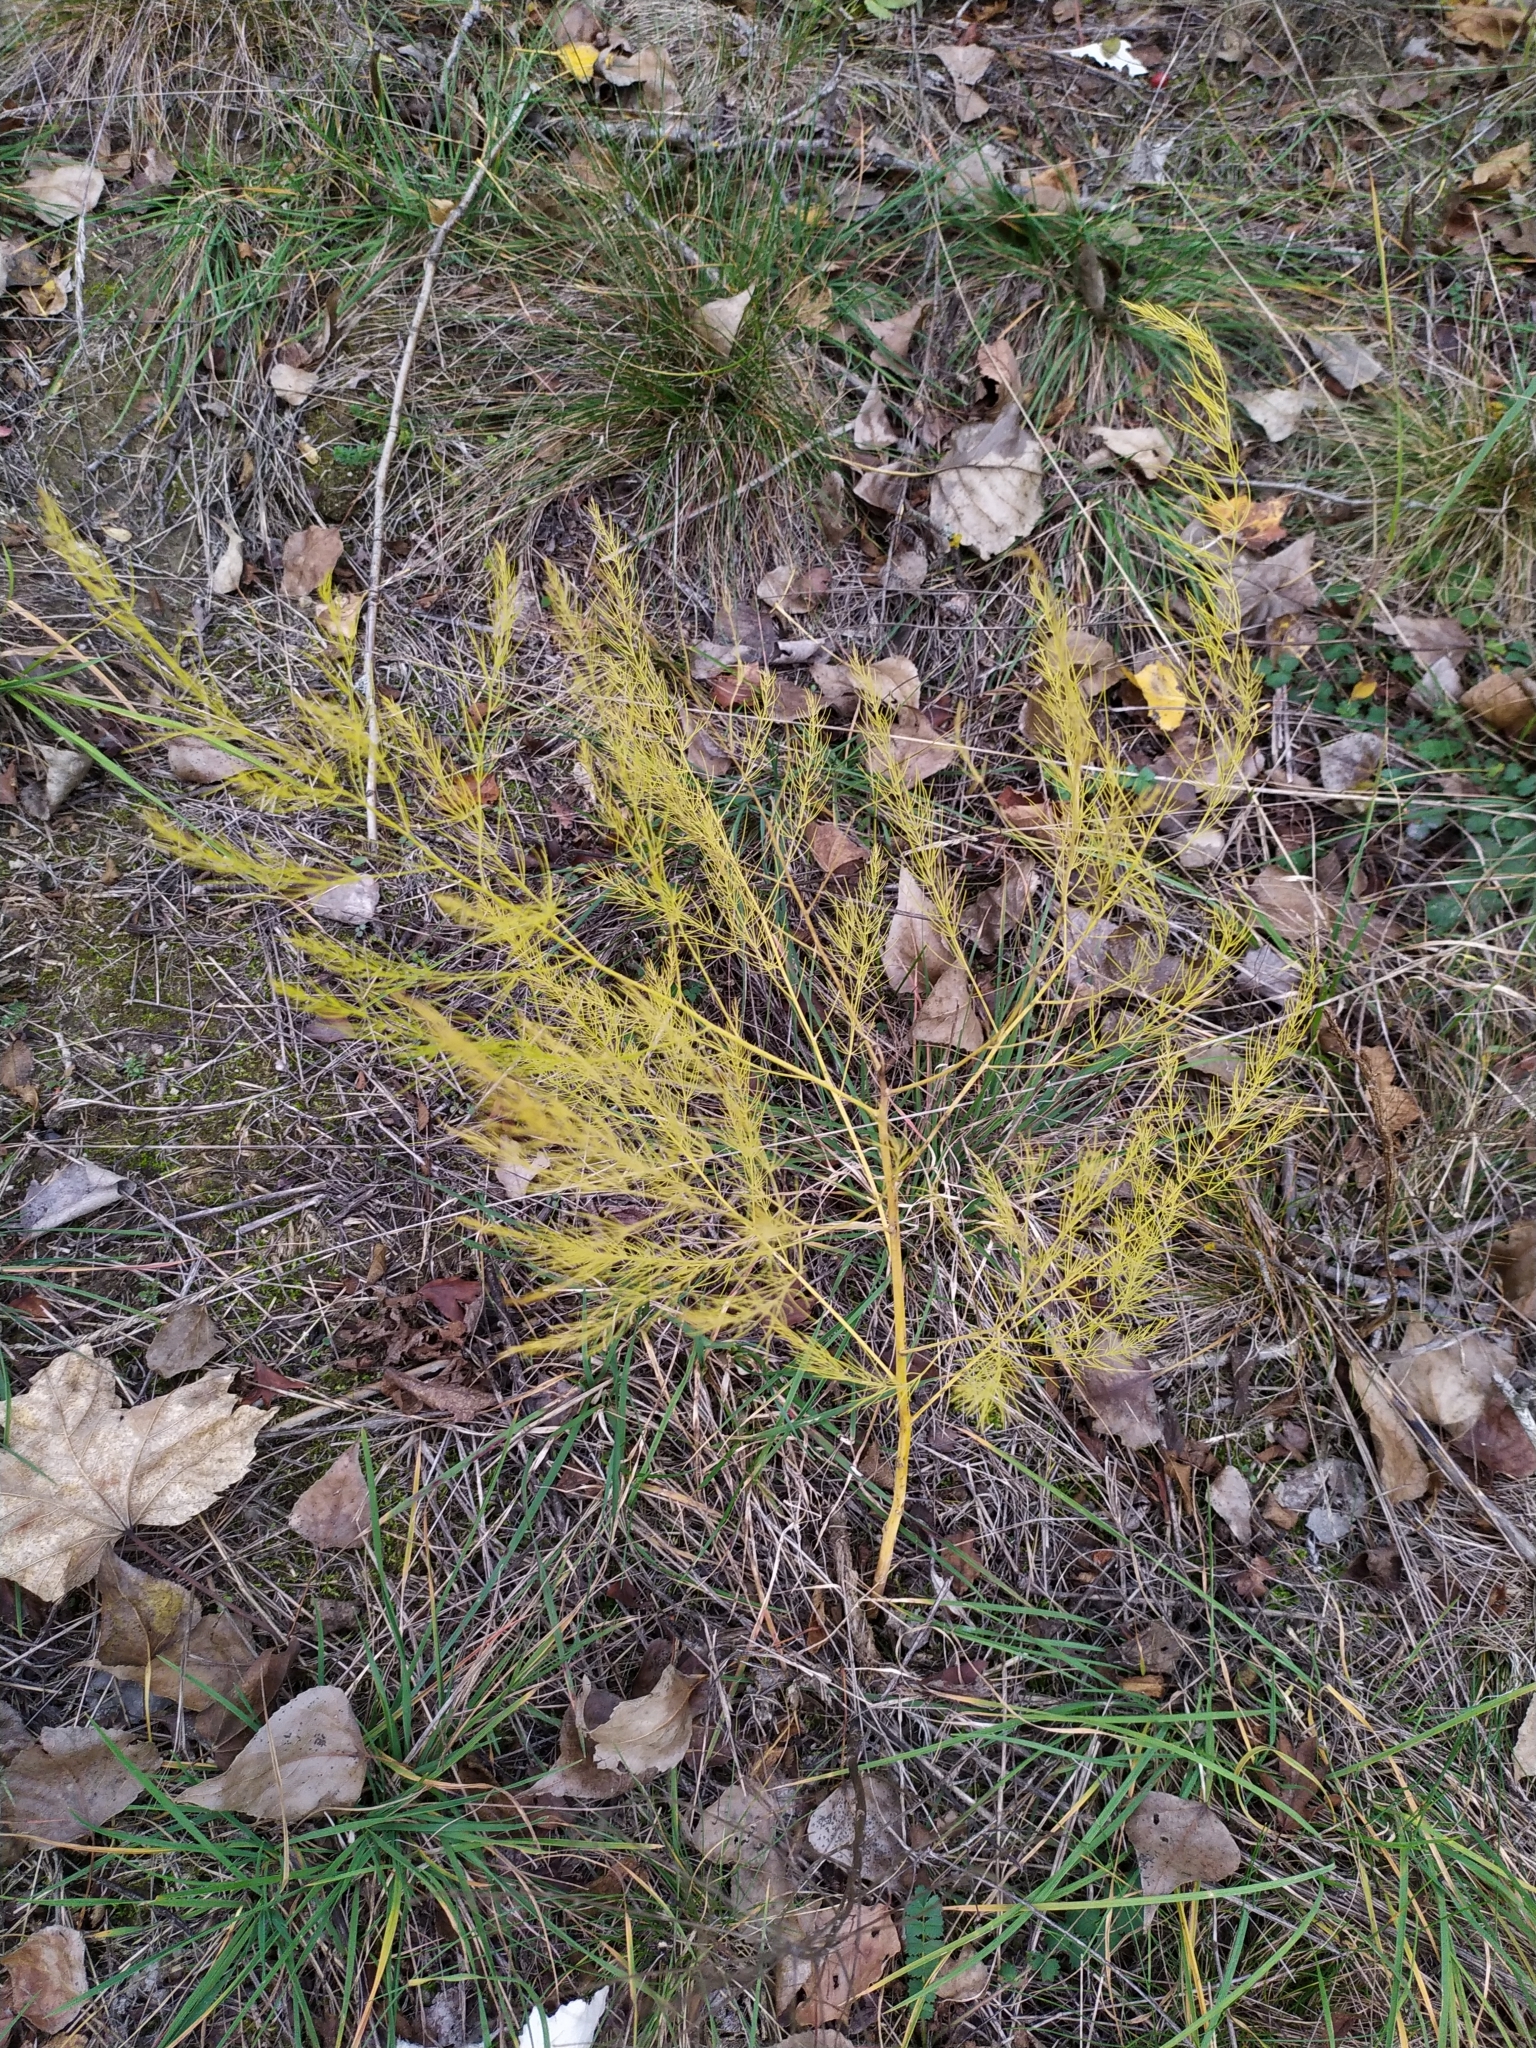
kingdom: Plantae
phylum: Tracheophyta
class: Liliopsida
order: Asparagales
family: Asparagaceae
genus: Asparagus
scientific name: Asparagus officinalis
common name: Garden asparagus
